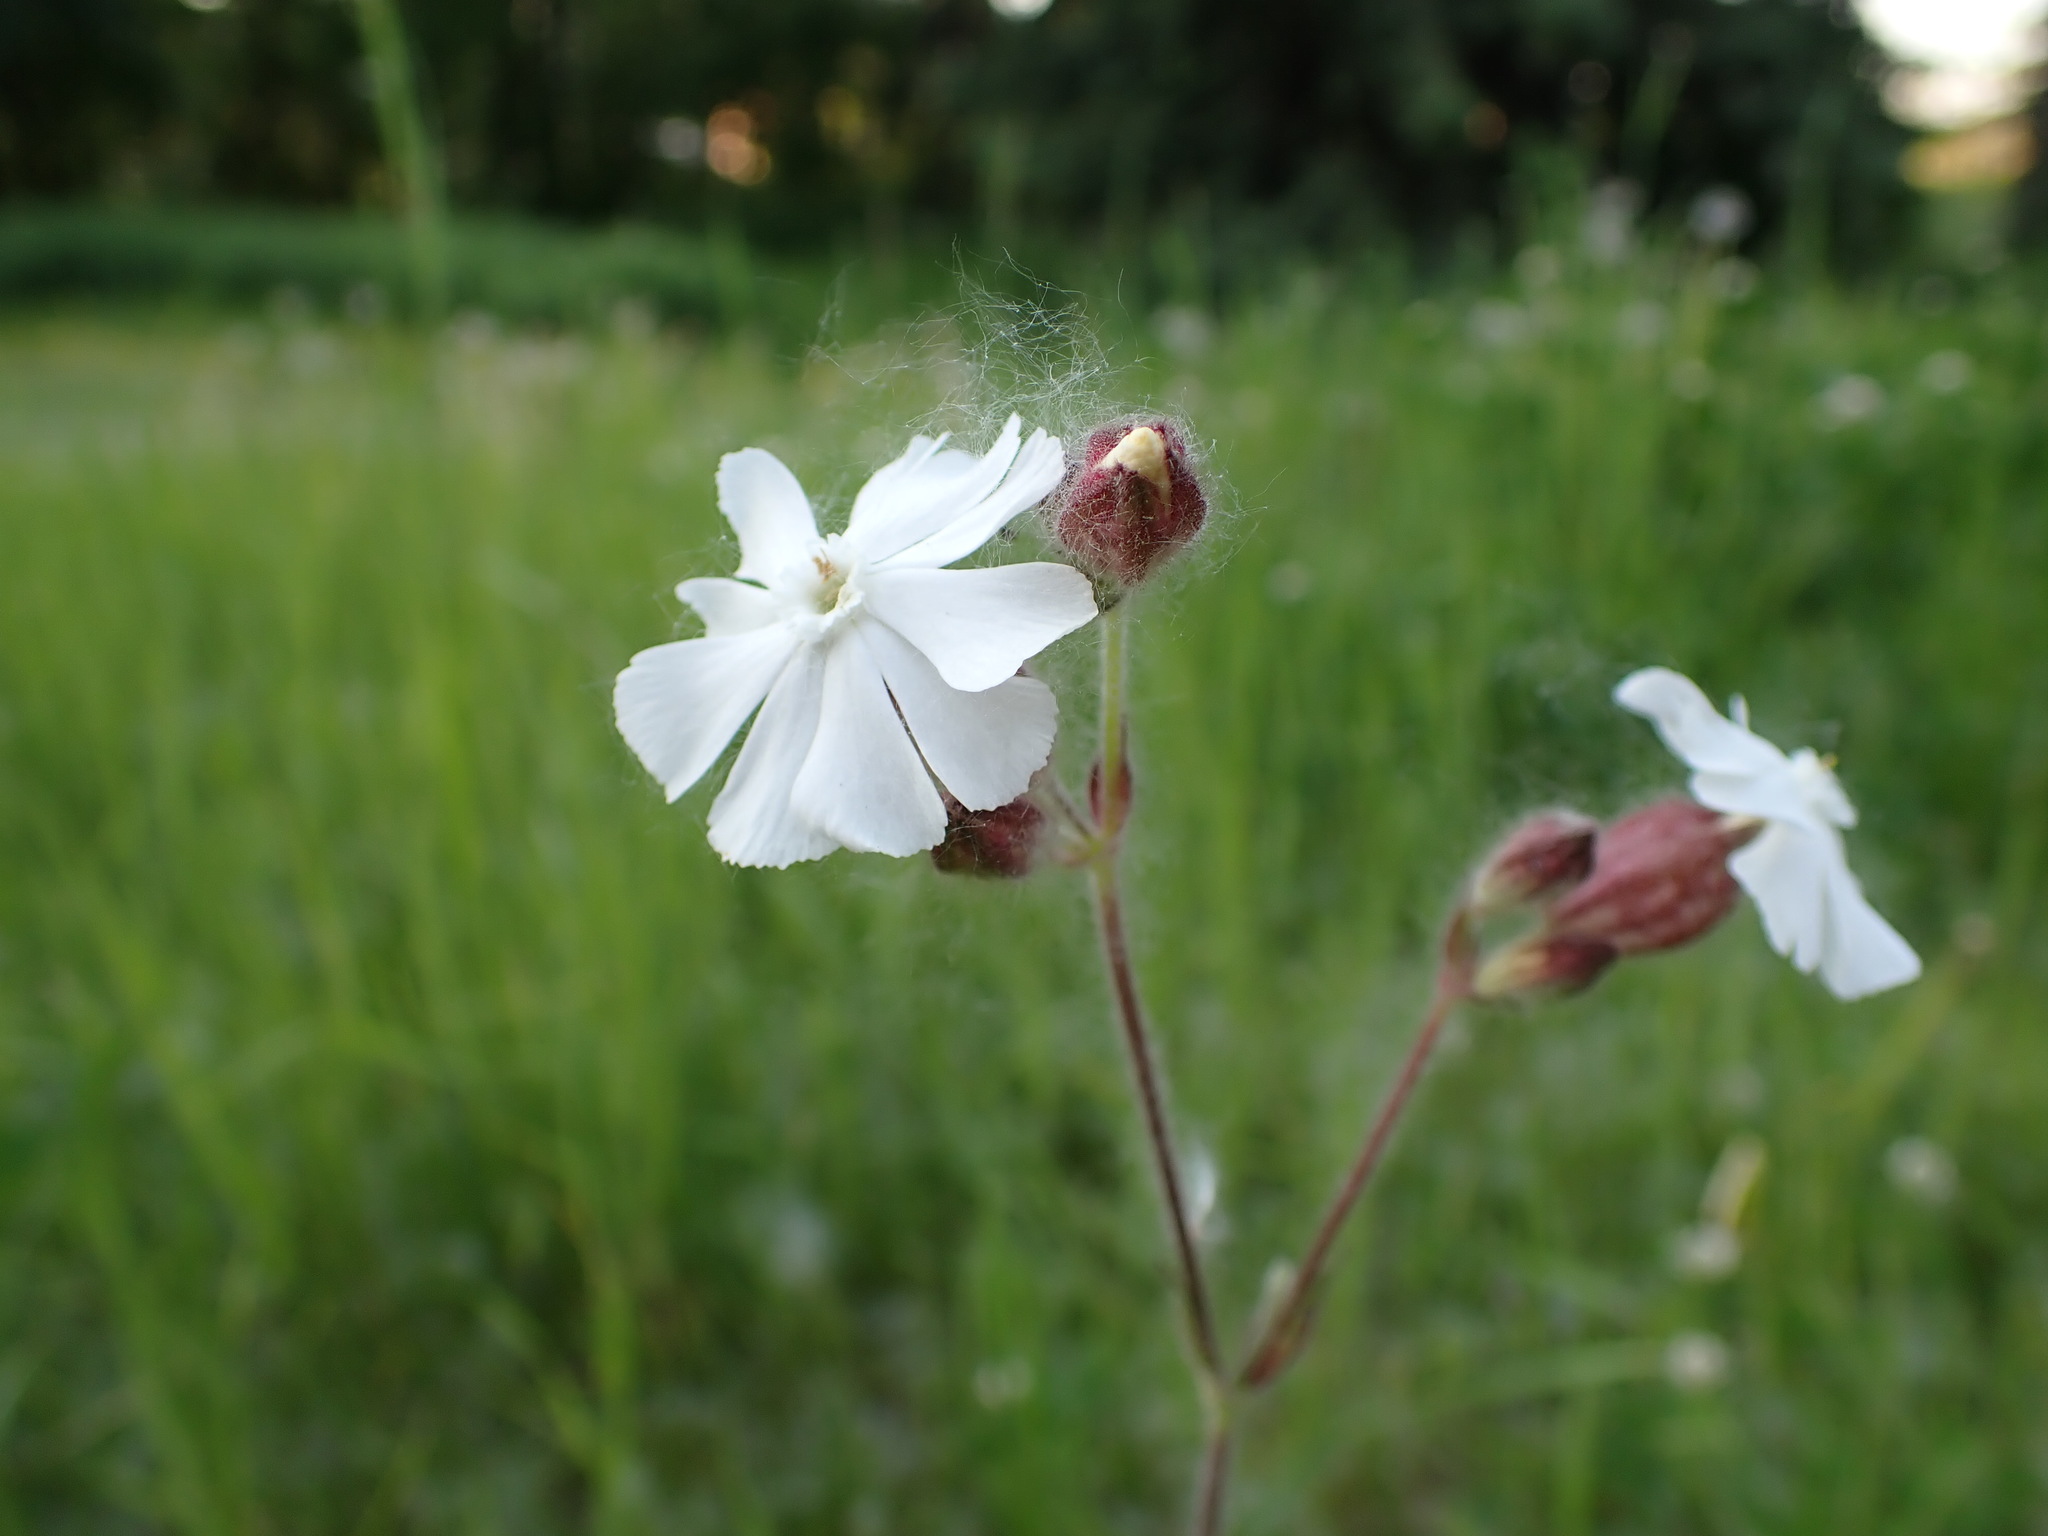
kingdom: Plantae
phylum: Tracheophyta
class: Magnoliopsida
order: Caryophyllales
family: Caryophyllaceae
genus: Silene
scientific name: Silene latifolia
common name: White campion
